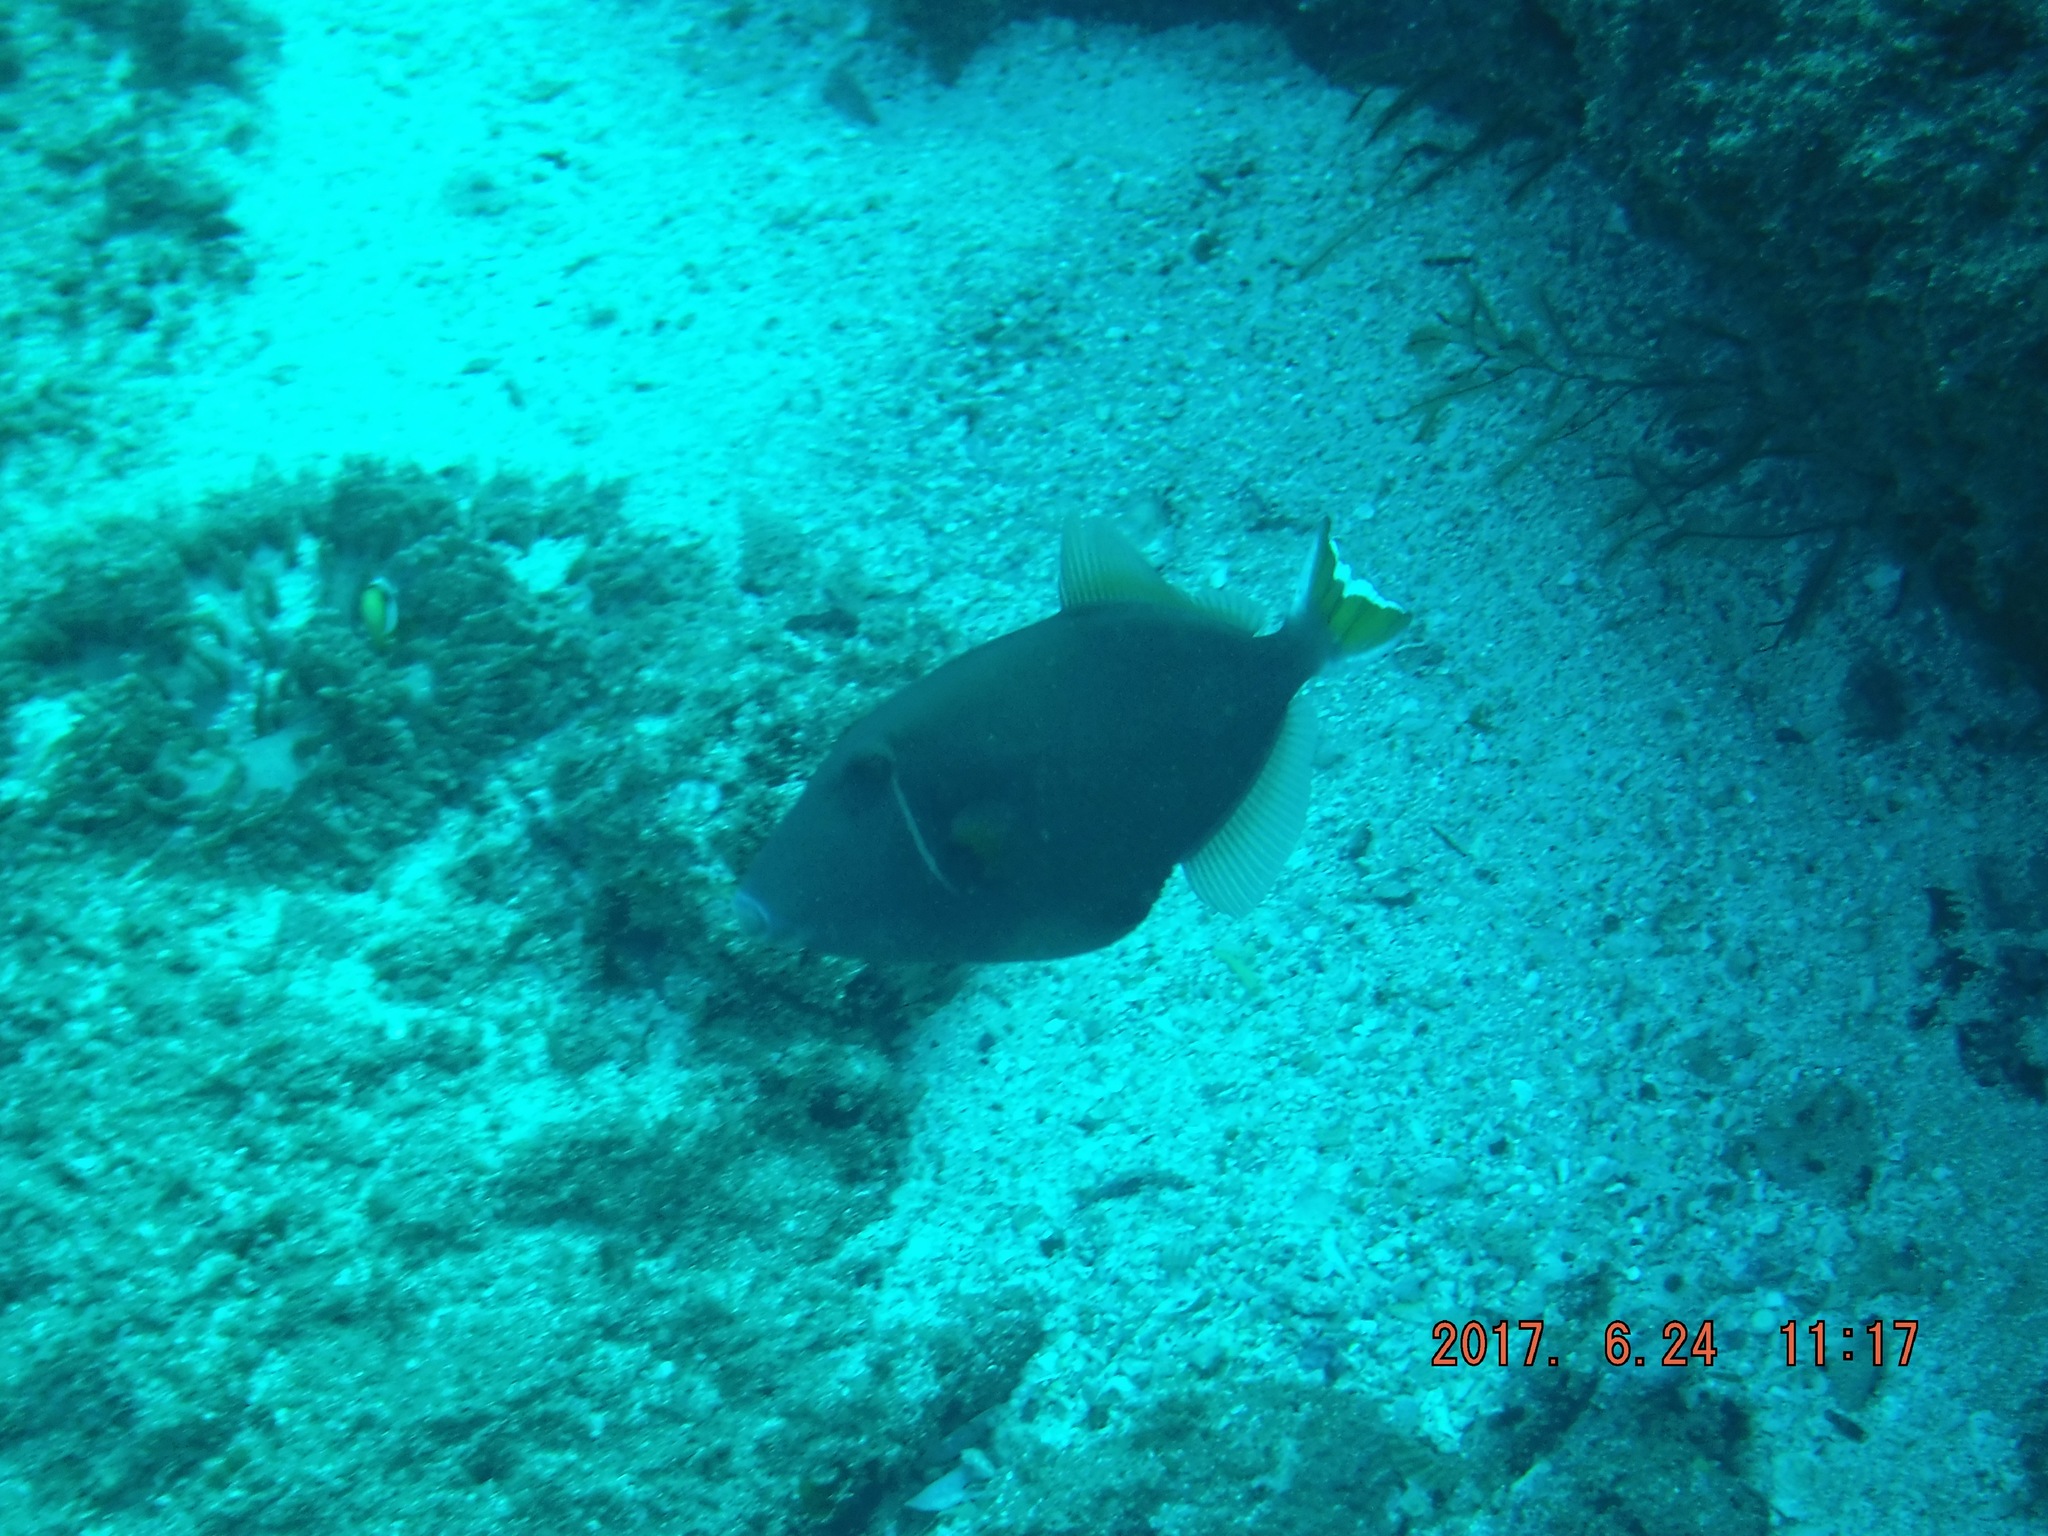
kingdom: Animalia
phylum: Chordata
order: Tetraodontiformes
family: Balistidae
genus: Sufflamen
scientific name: Sufflamen chrysopterum
